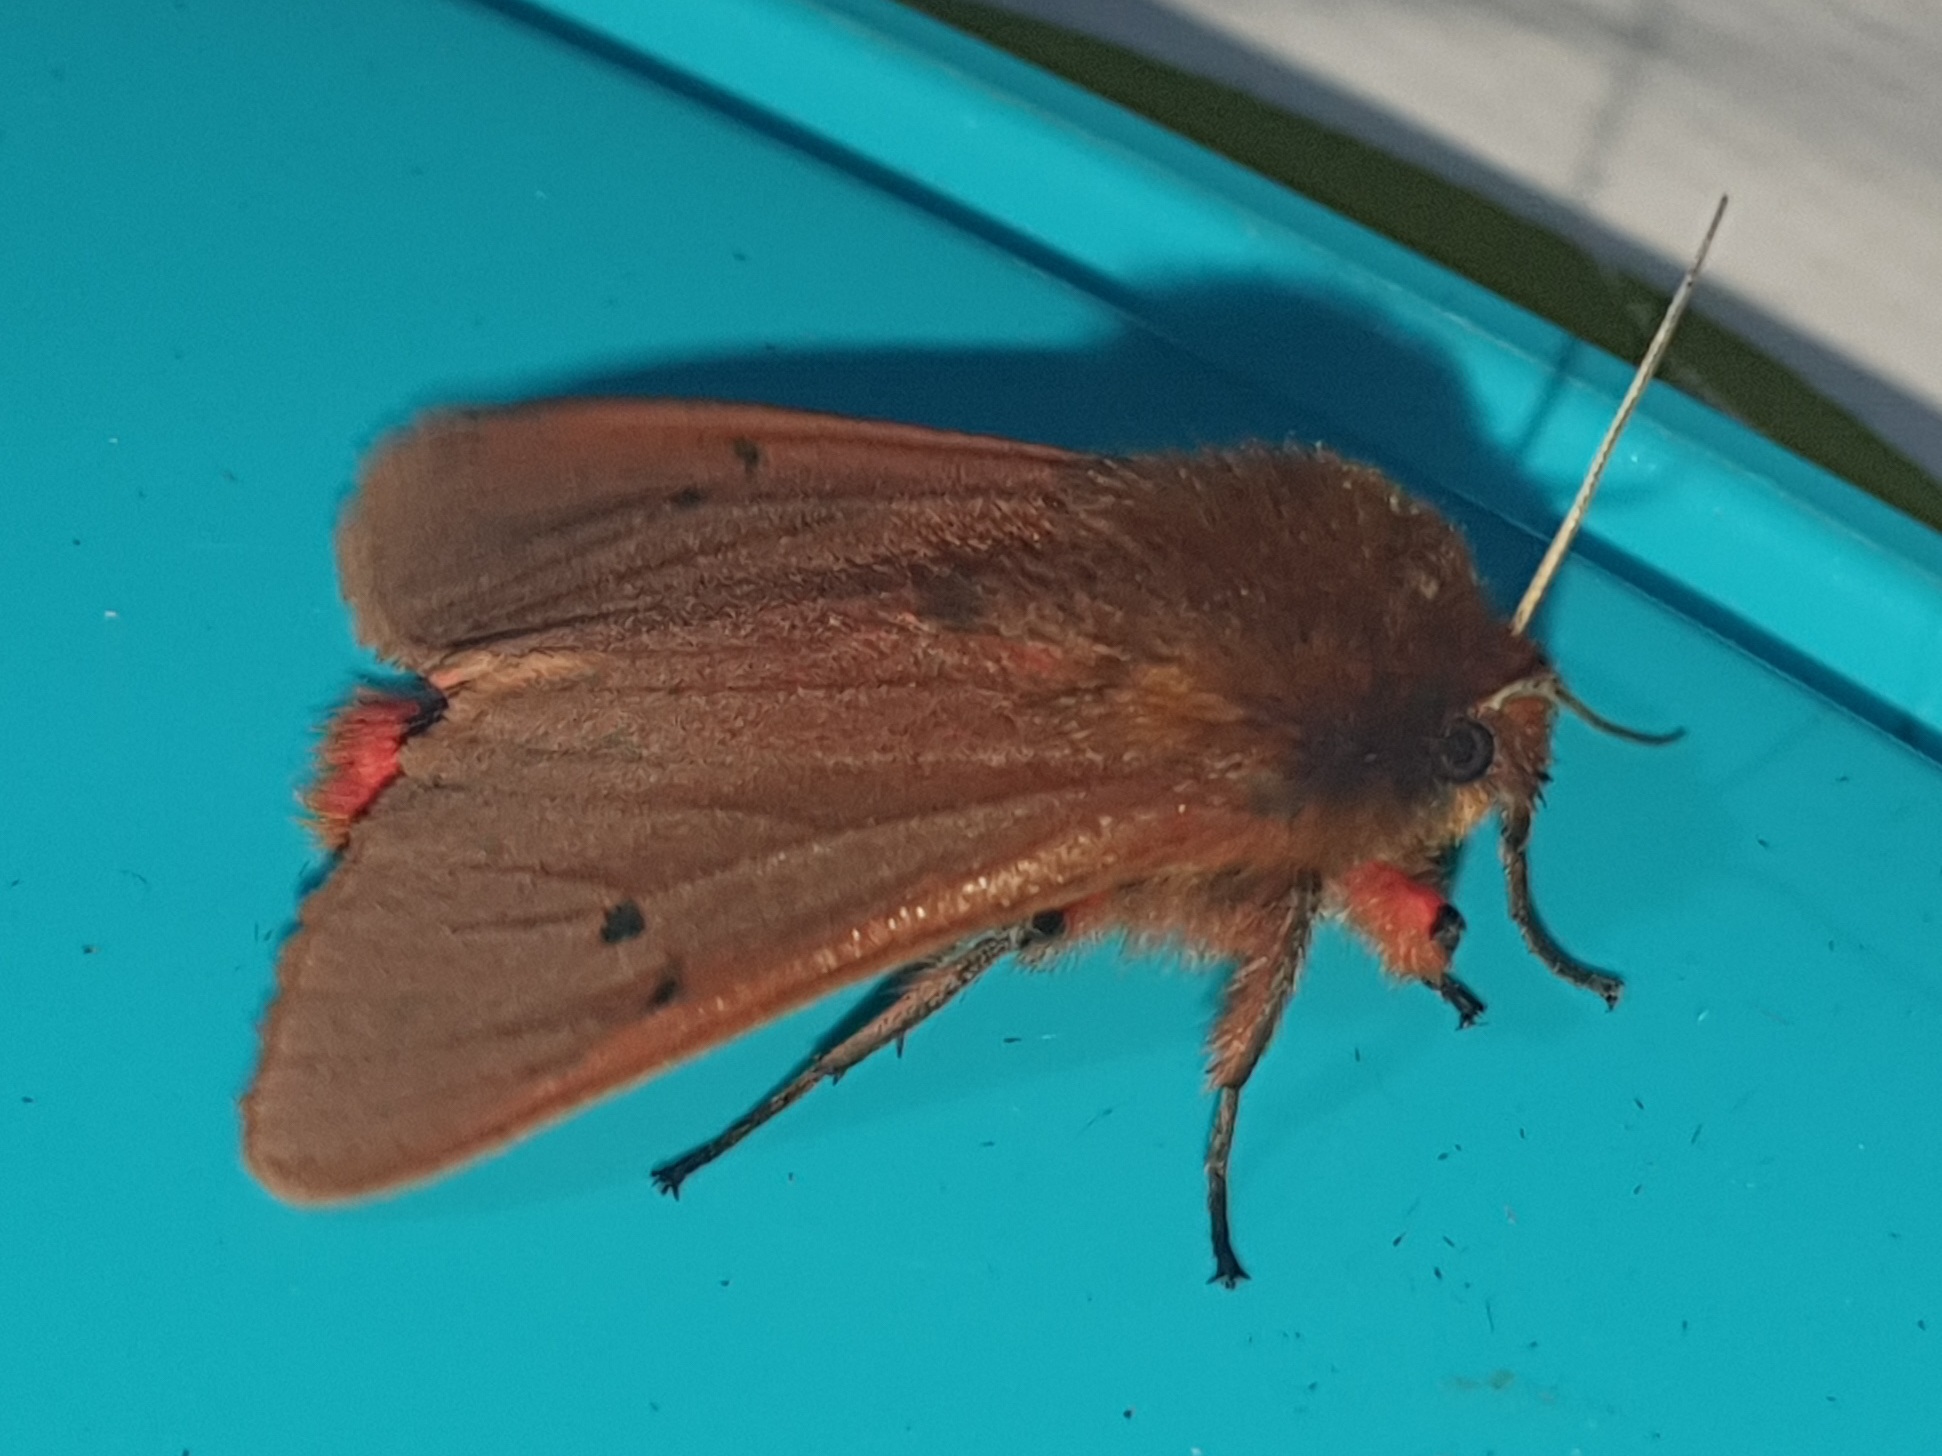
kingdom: Animalia
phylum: Arthropoda
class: Insecta
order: Lepidoptera
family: Erebidae
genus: Phragmatobia
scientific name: Phragmatobia fuliginosa
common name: Ruby tiger
